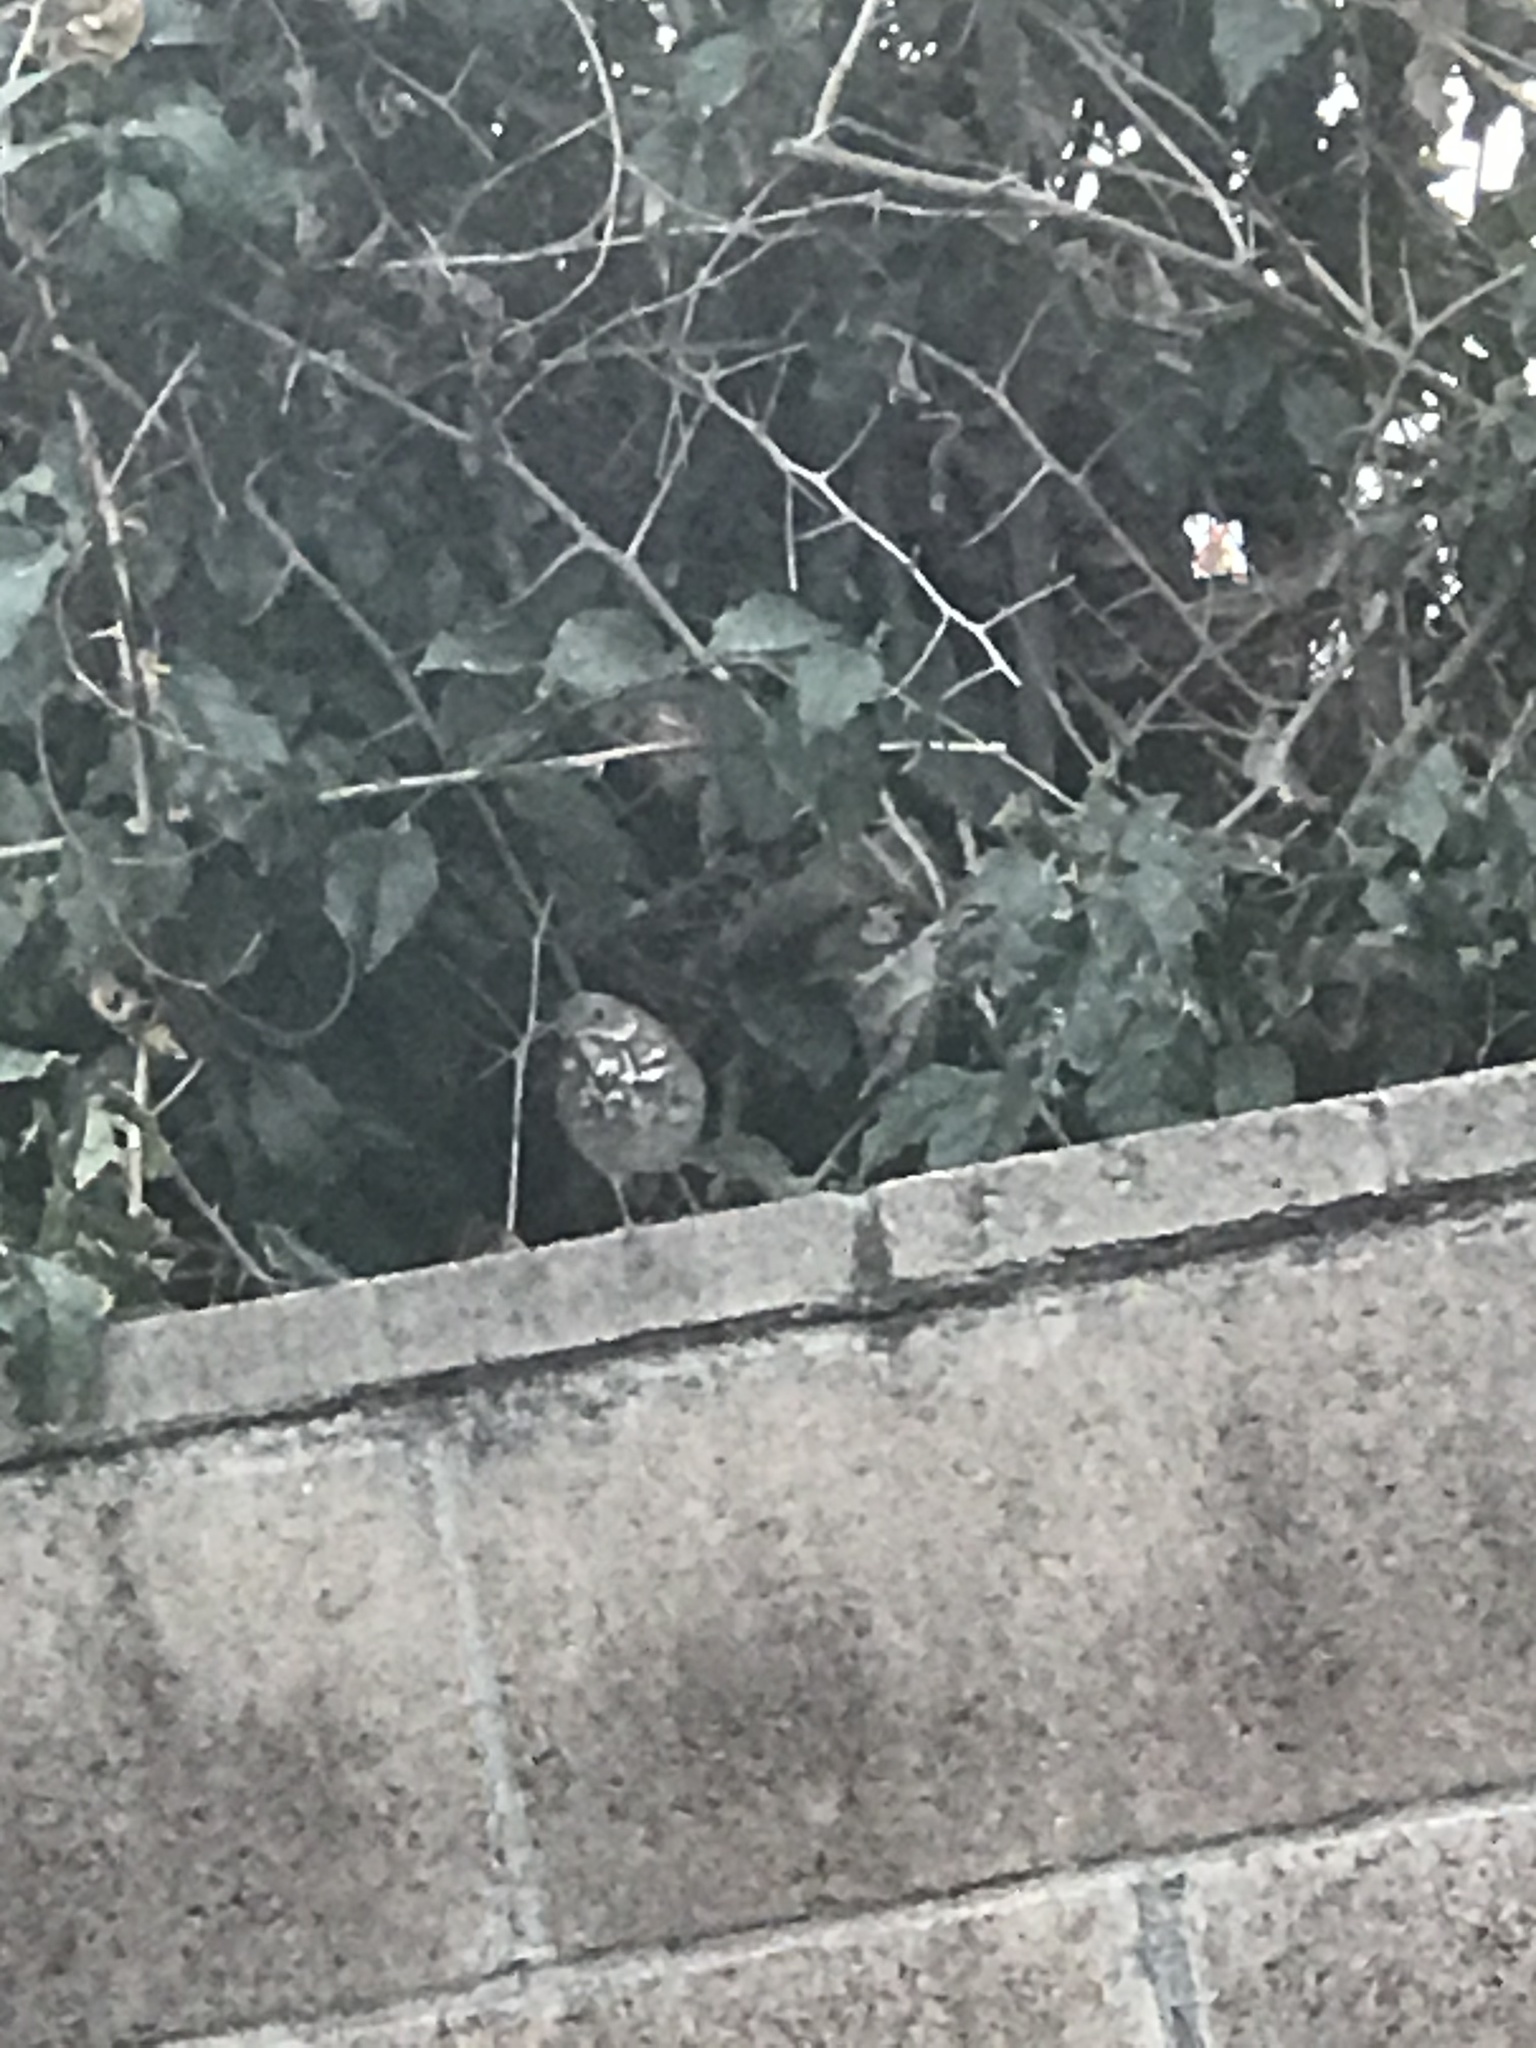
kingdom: Animalia
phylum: Chordata
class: Aves
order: Passeriformes
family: Turdidae
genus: Catharus
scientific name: Catharus guttatus
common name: Hermit thrush
